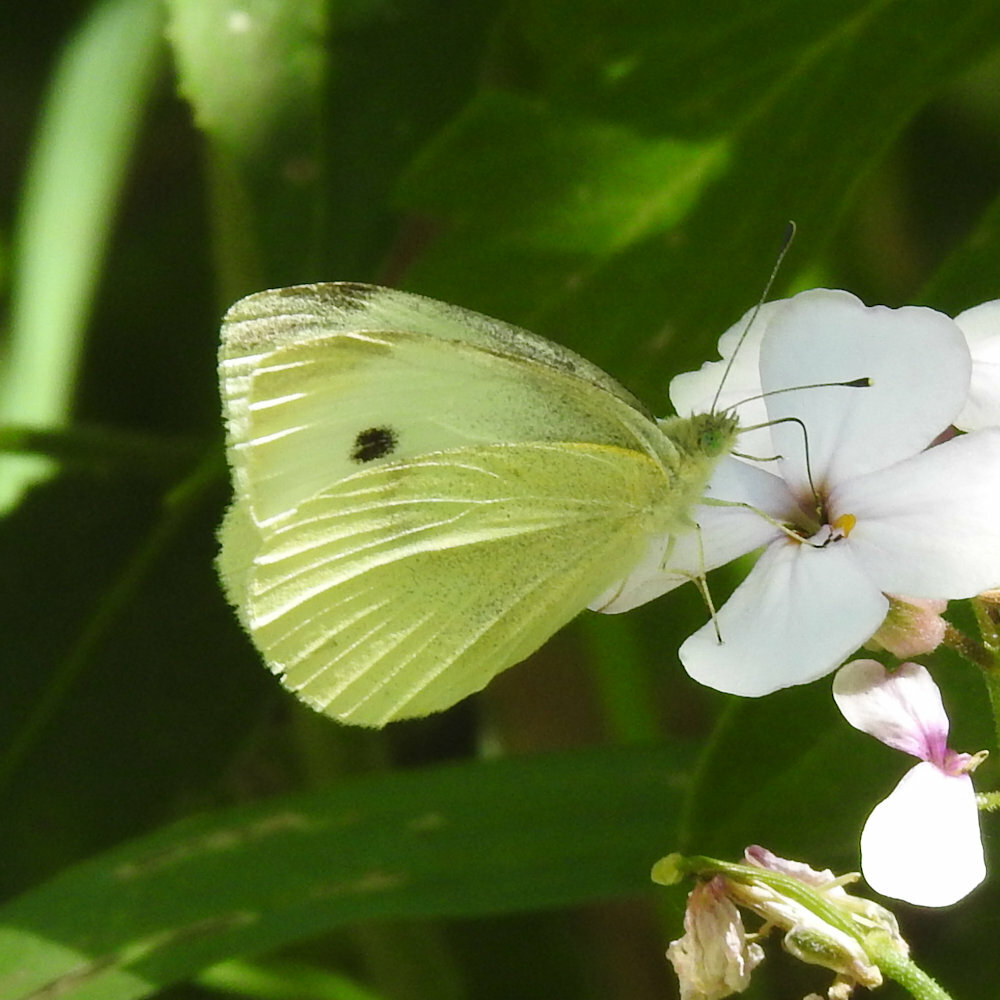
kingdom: Animalia
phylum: Arthropoda
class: Insecta
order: Lepidoptera
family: Pieridae
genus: Pieris
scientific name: Pieris rapae
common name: Small white
